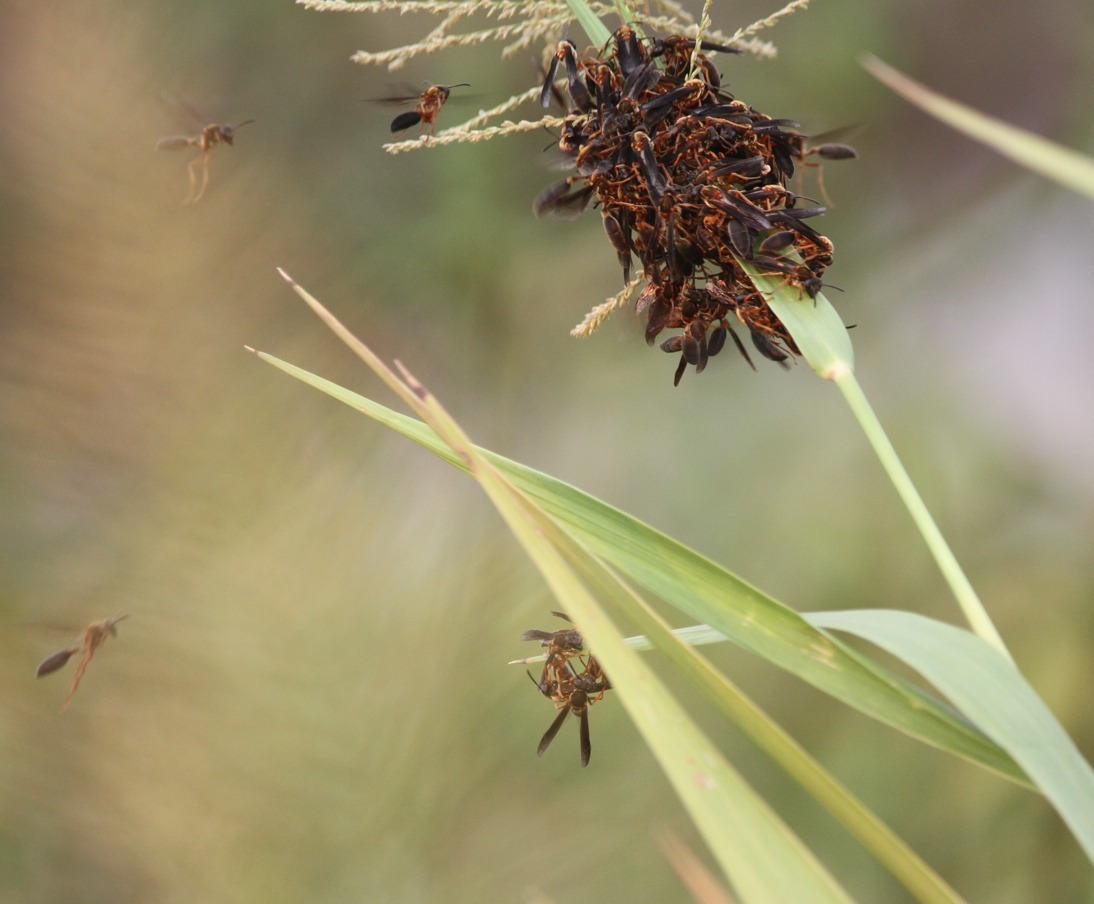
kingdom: Animalia
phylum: Arthropoda
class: Insecta
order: Hymenoptera
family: Eumenidae
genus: Polybia
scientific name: Polybia sericea
